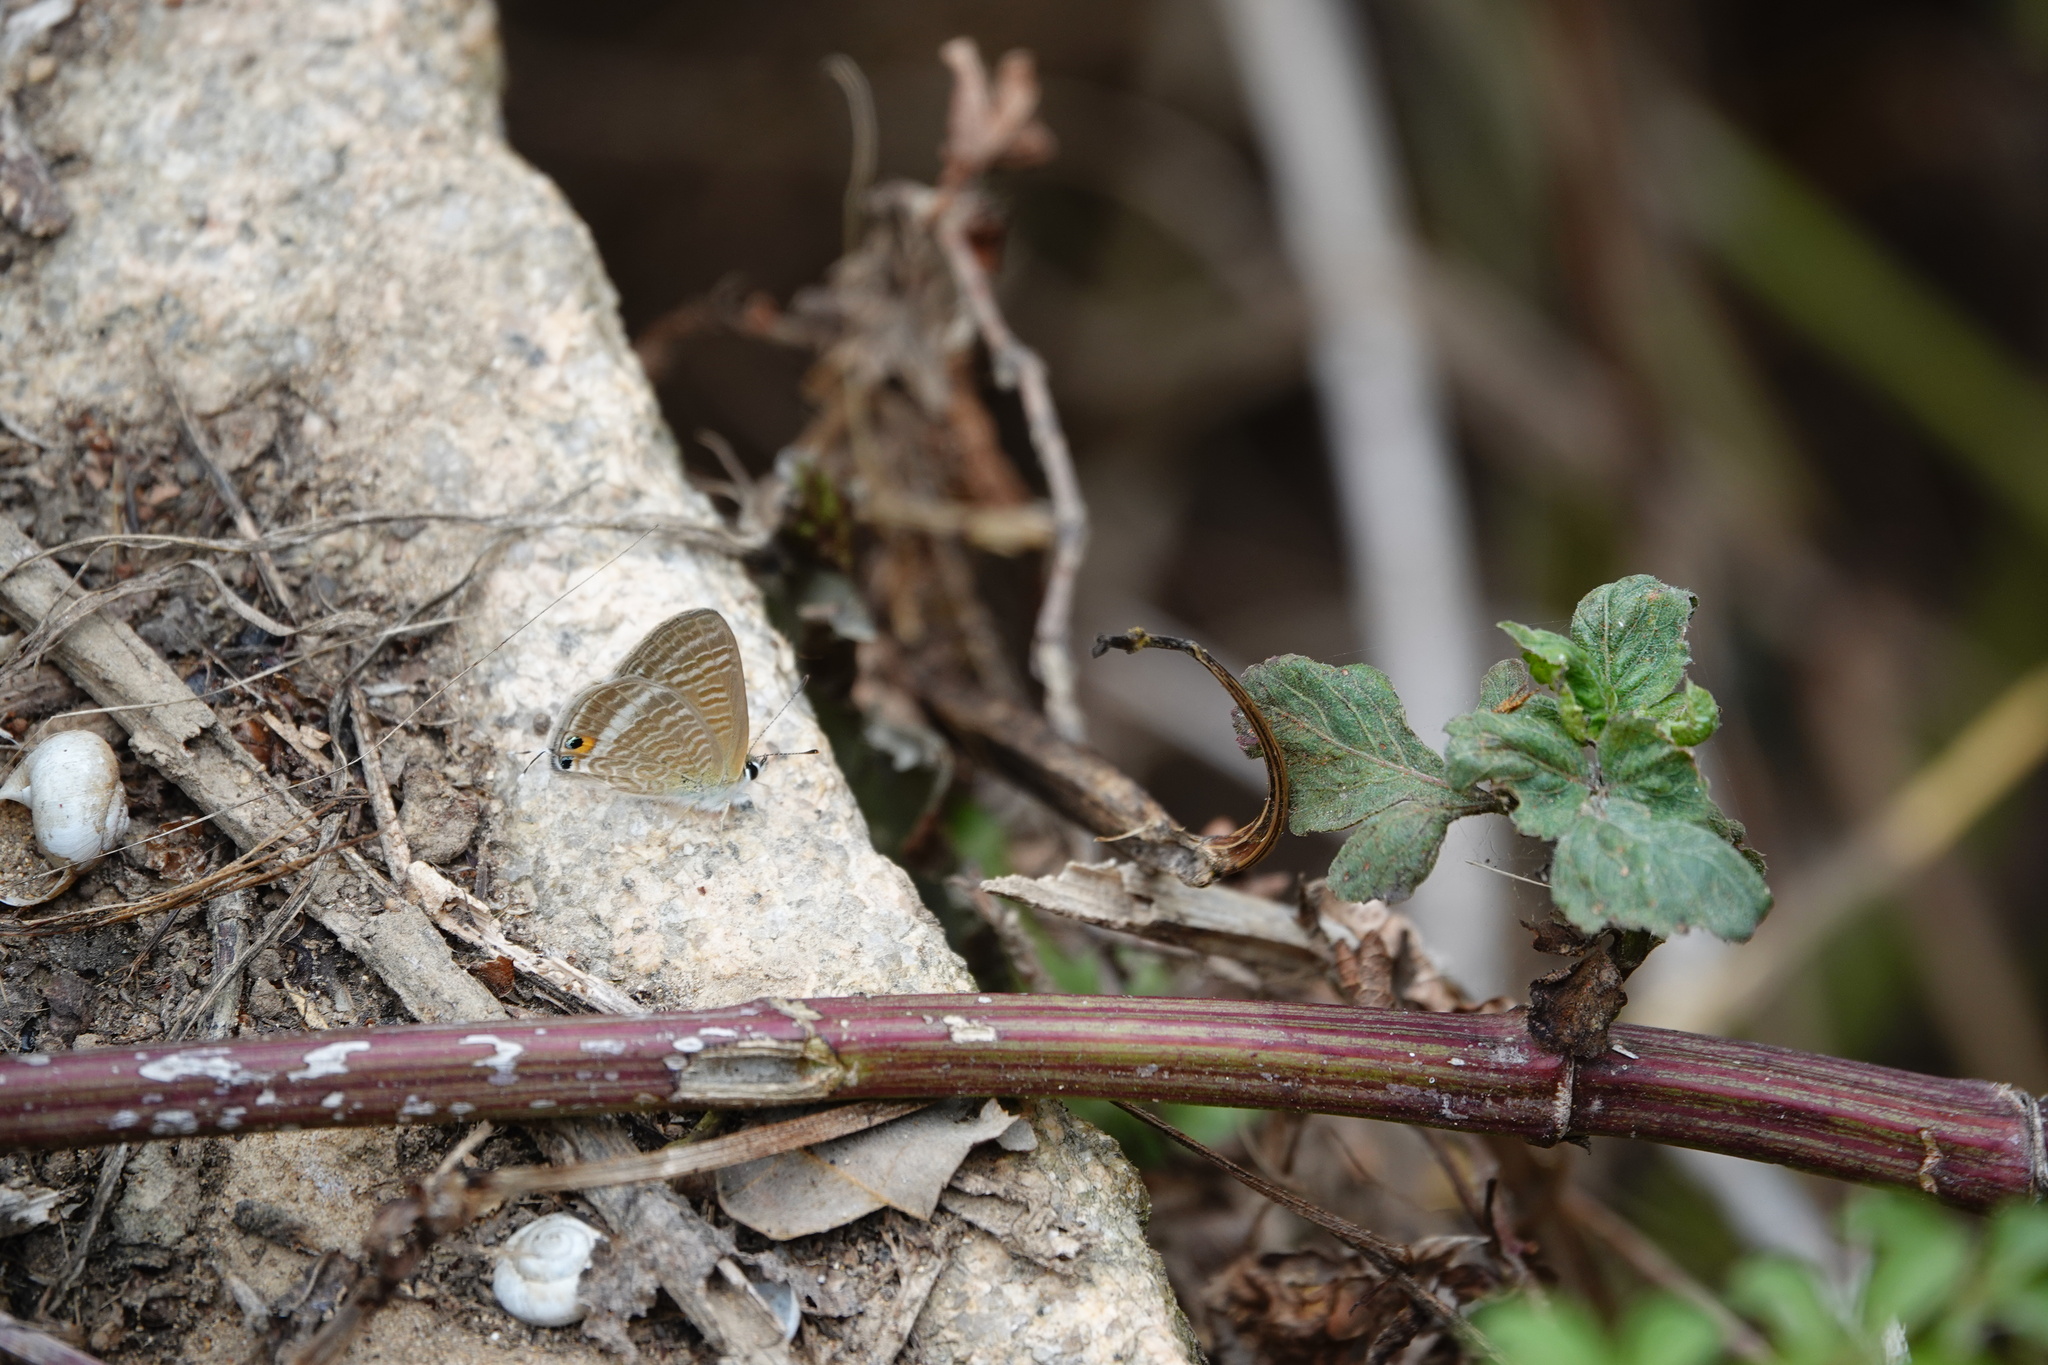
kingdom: Animalia
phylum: Arthropoda
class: Insecta
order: Lepidoptera
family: Lycaenidae
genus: Lampides
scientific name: Lampides boeticus
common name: Long-tailed blue
